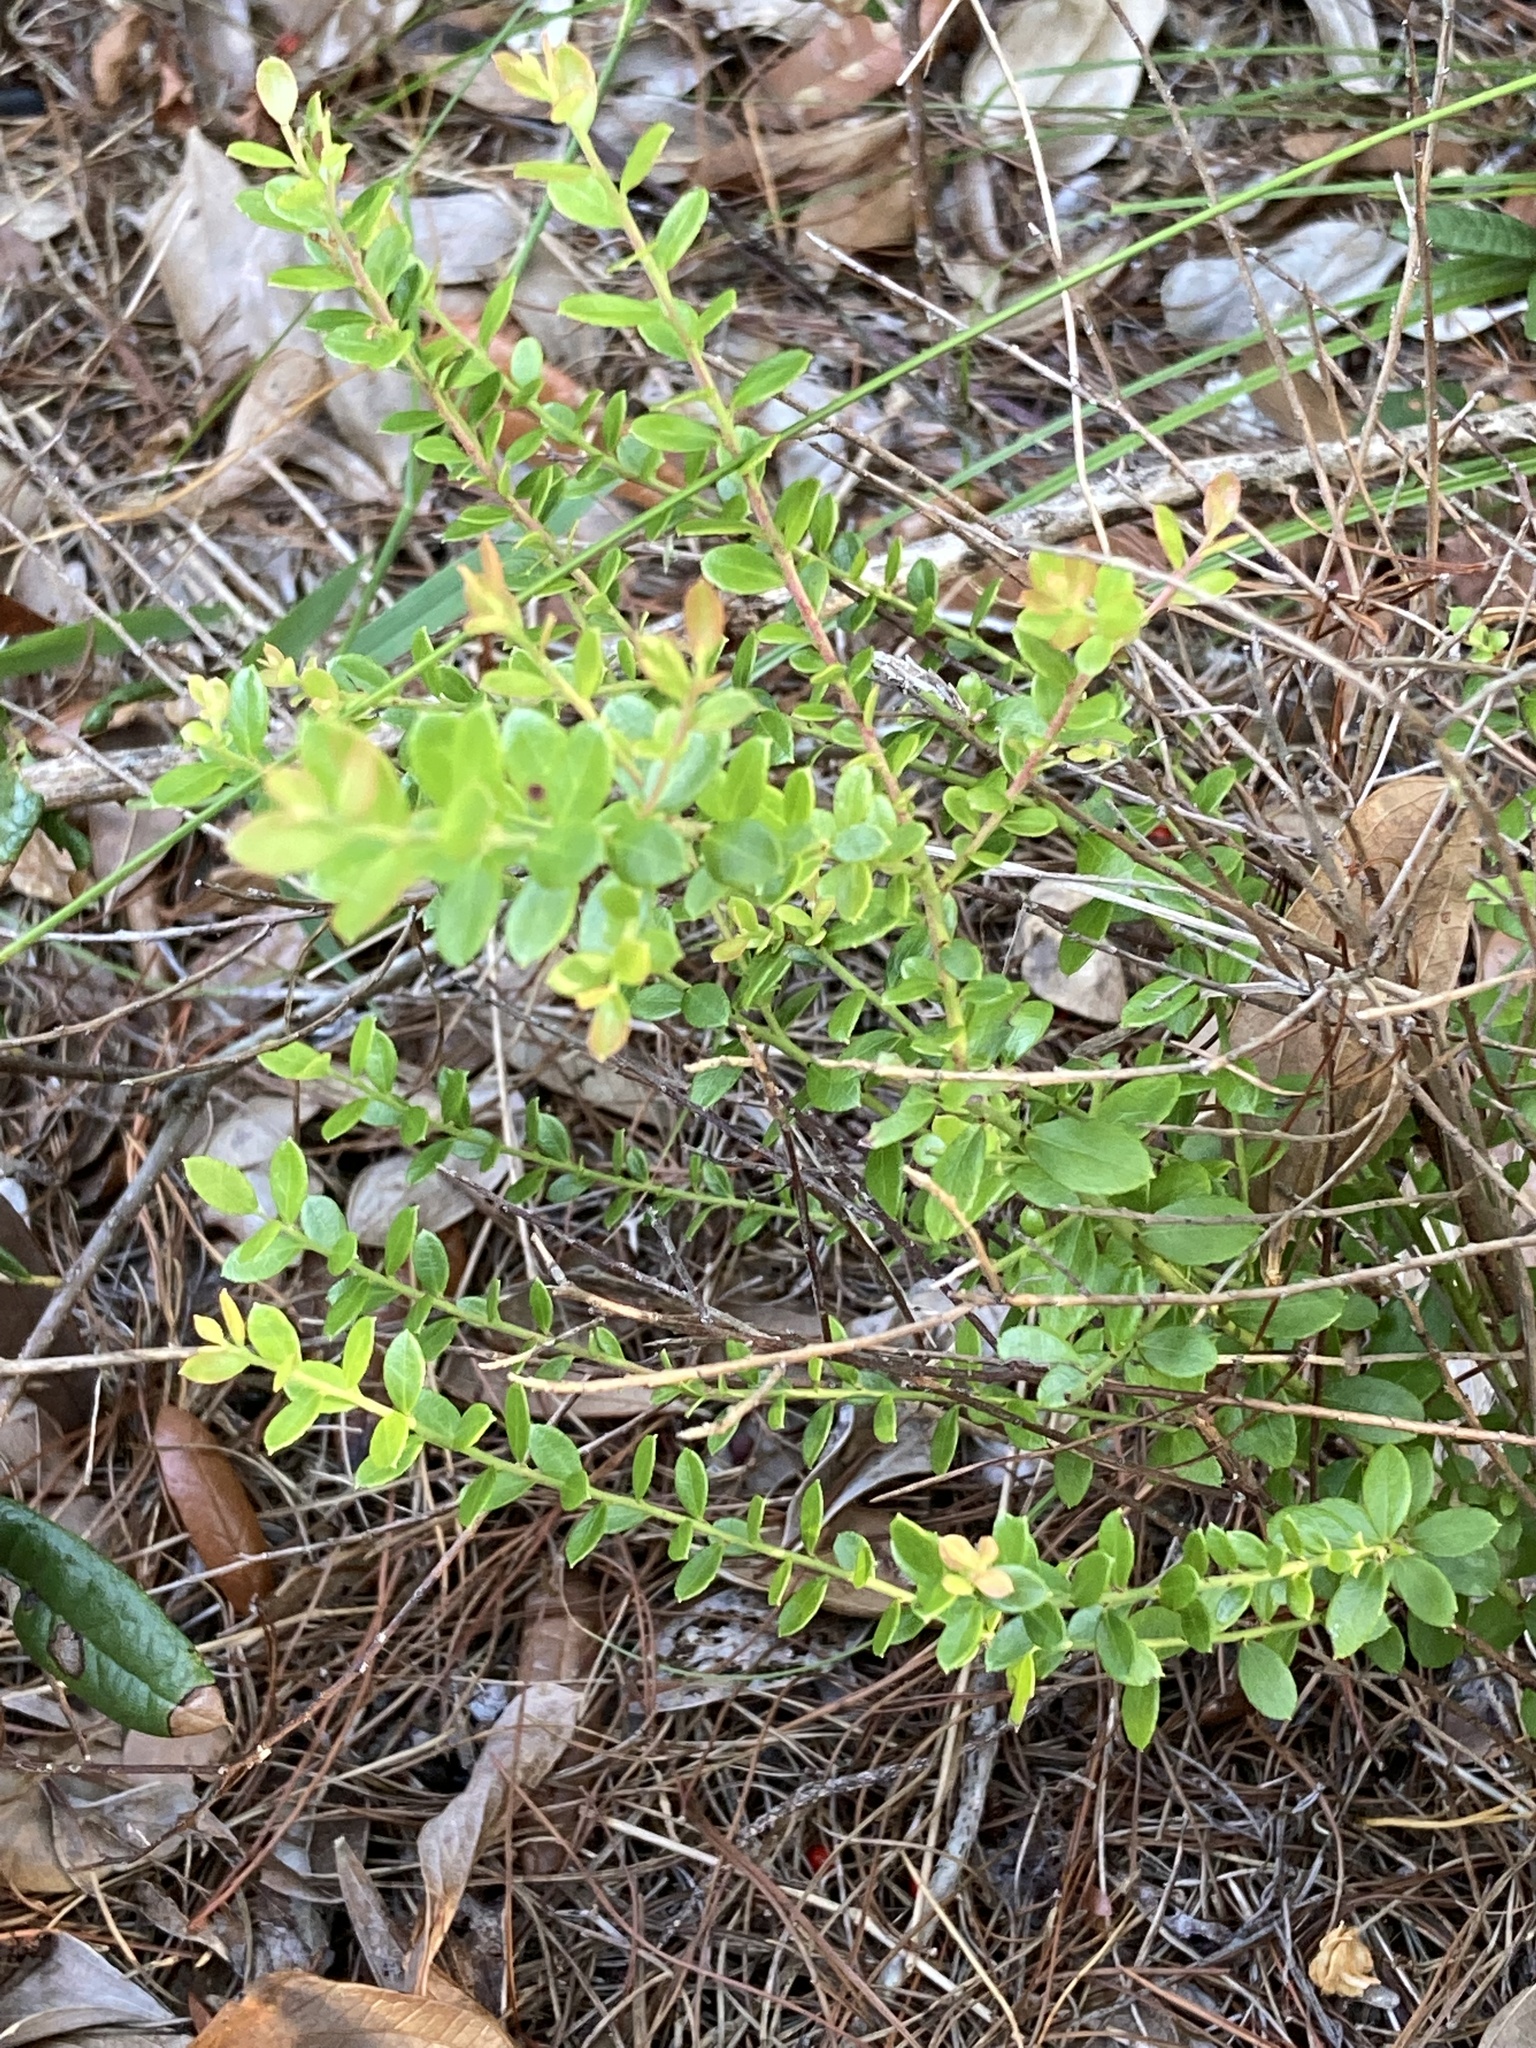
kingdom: Plantae
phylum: Tracheophyta
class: Magnoliopsida
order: Ericales
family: Ericaceae
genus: Vaccinium
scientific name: Vaccinium myrsinites
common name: Evergreen blueberry
